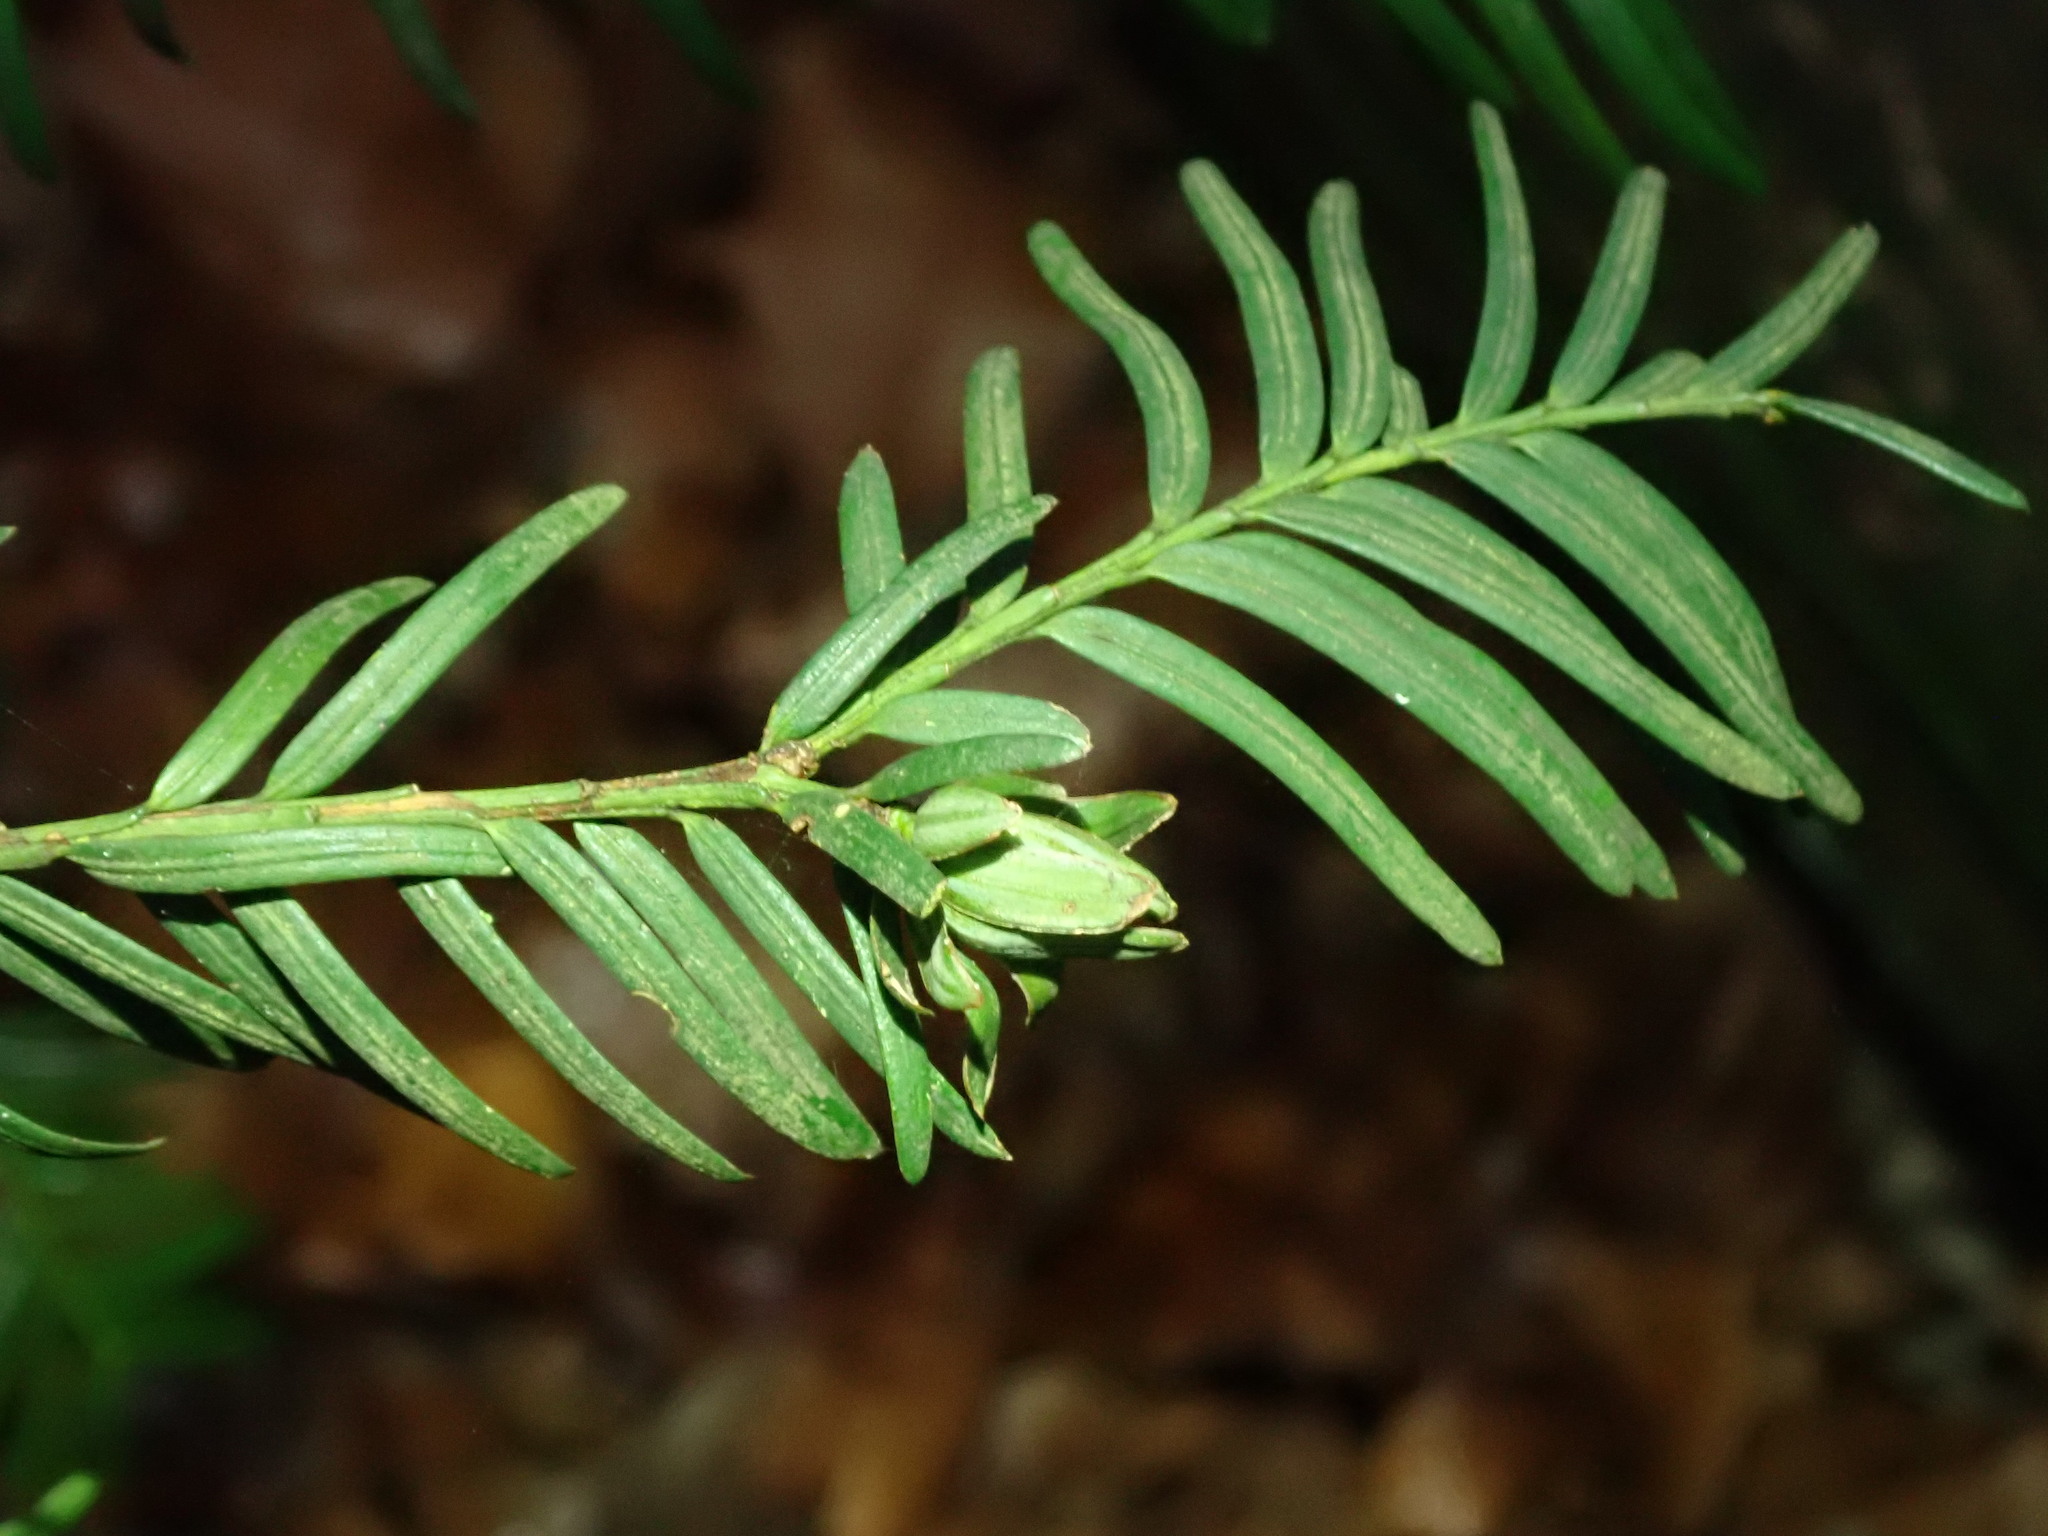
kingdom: Animalia
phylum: Arthropoda
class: Insecta
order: Diptera
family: Cecidomyiidae
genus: Taxomyia
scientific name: Taxomyia taxi
